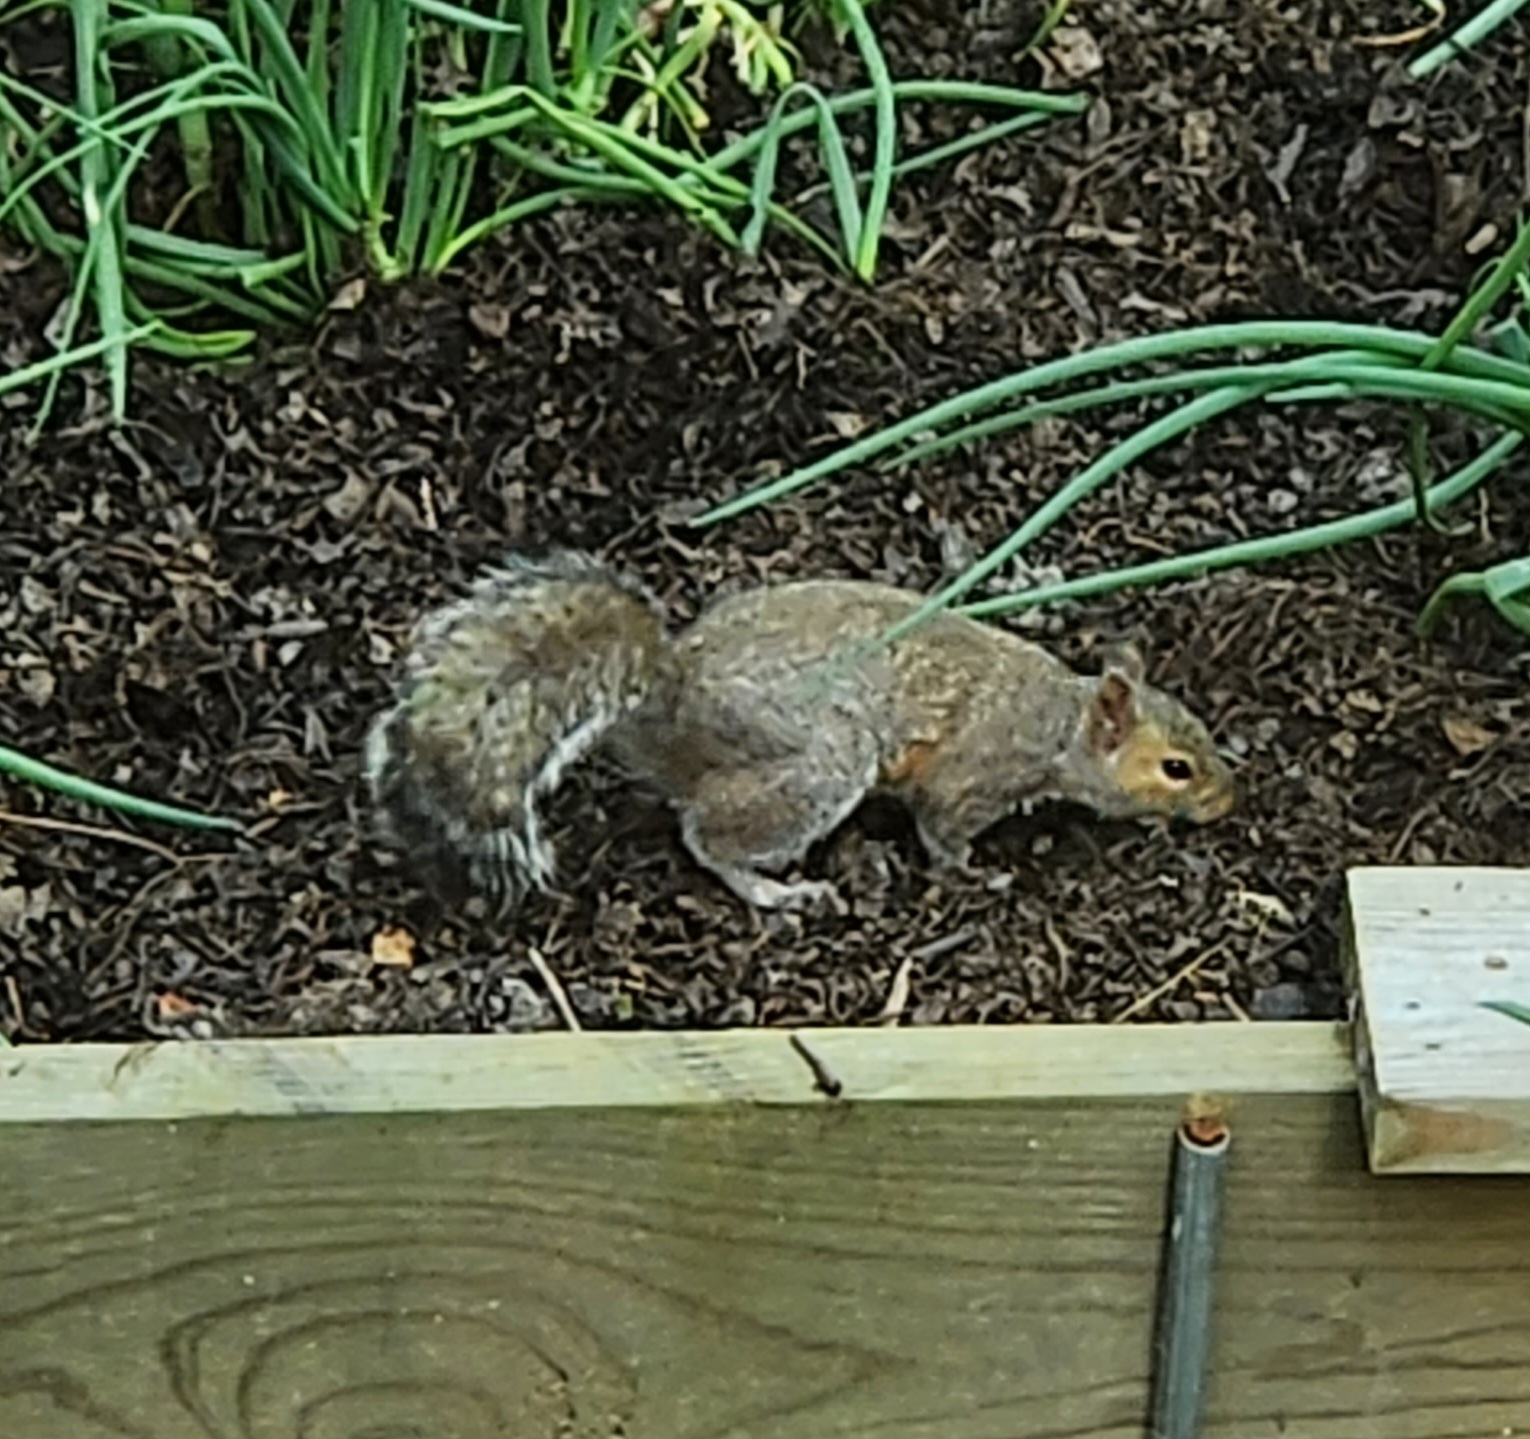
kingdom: Animalia
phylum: Chordata
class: Mammalia
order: Rodentia
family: Sciuridae
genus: Sciurus
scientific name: Sciurus carolinensis
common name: Eastern gray squirrel
